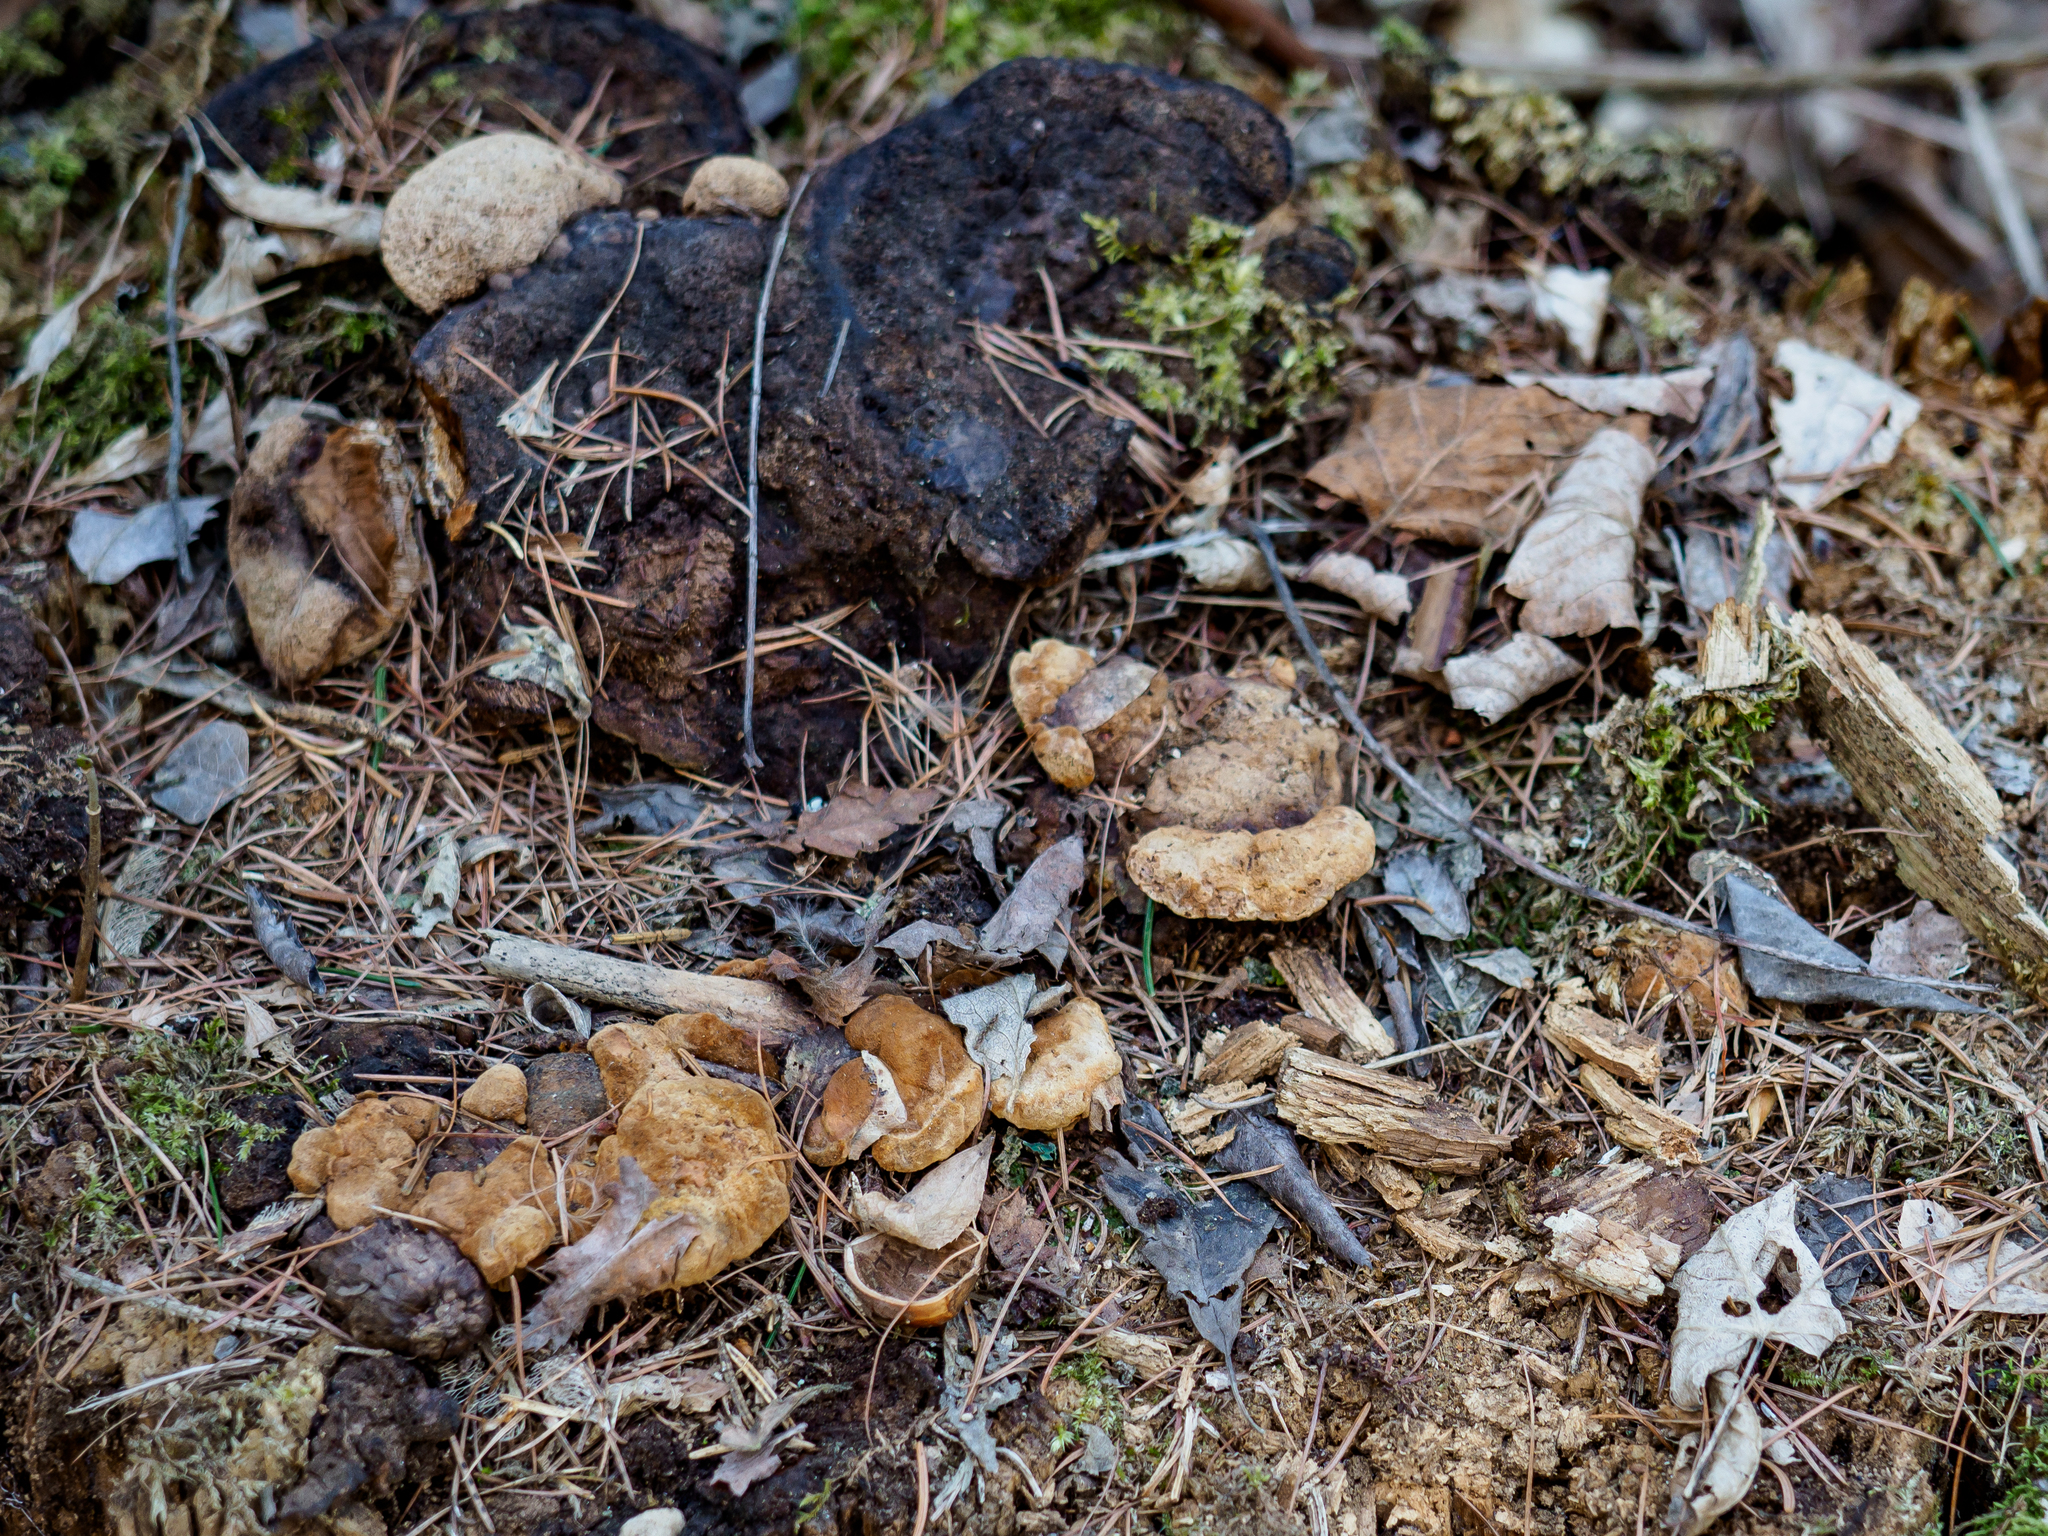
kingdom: Fungi
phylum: Basidiomycota
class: Agaricomycetes
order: Gloeophyllales
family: Gloeophyllaceae
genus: Gloeophyllum
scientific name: Gloeophyllum odoratum
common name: Anise mazegill
